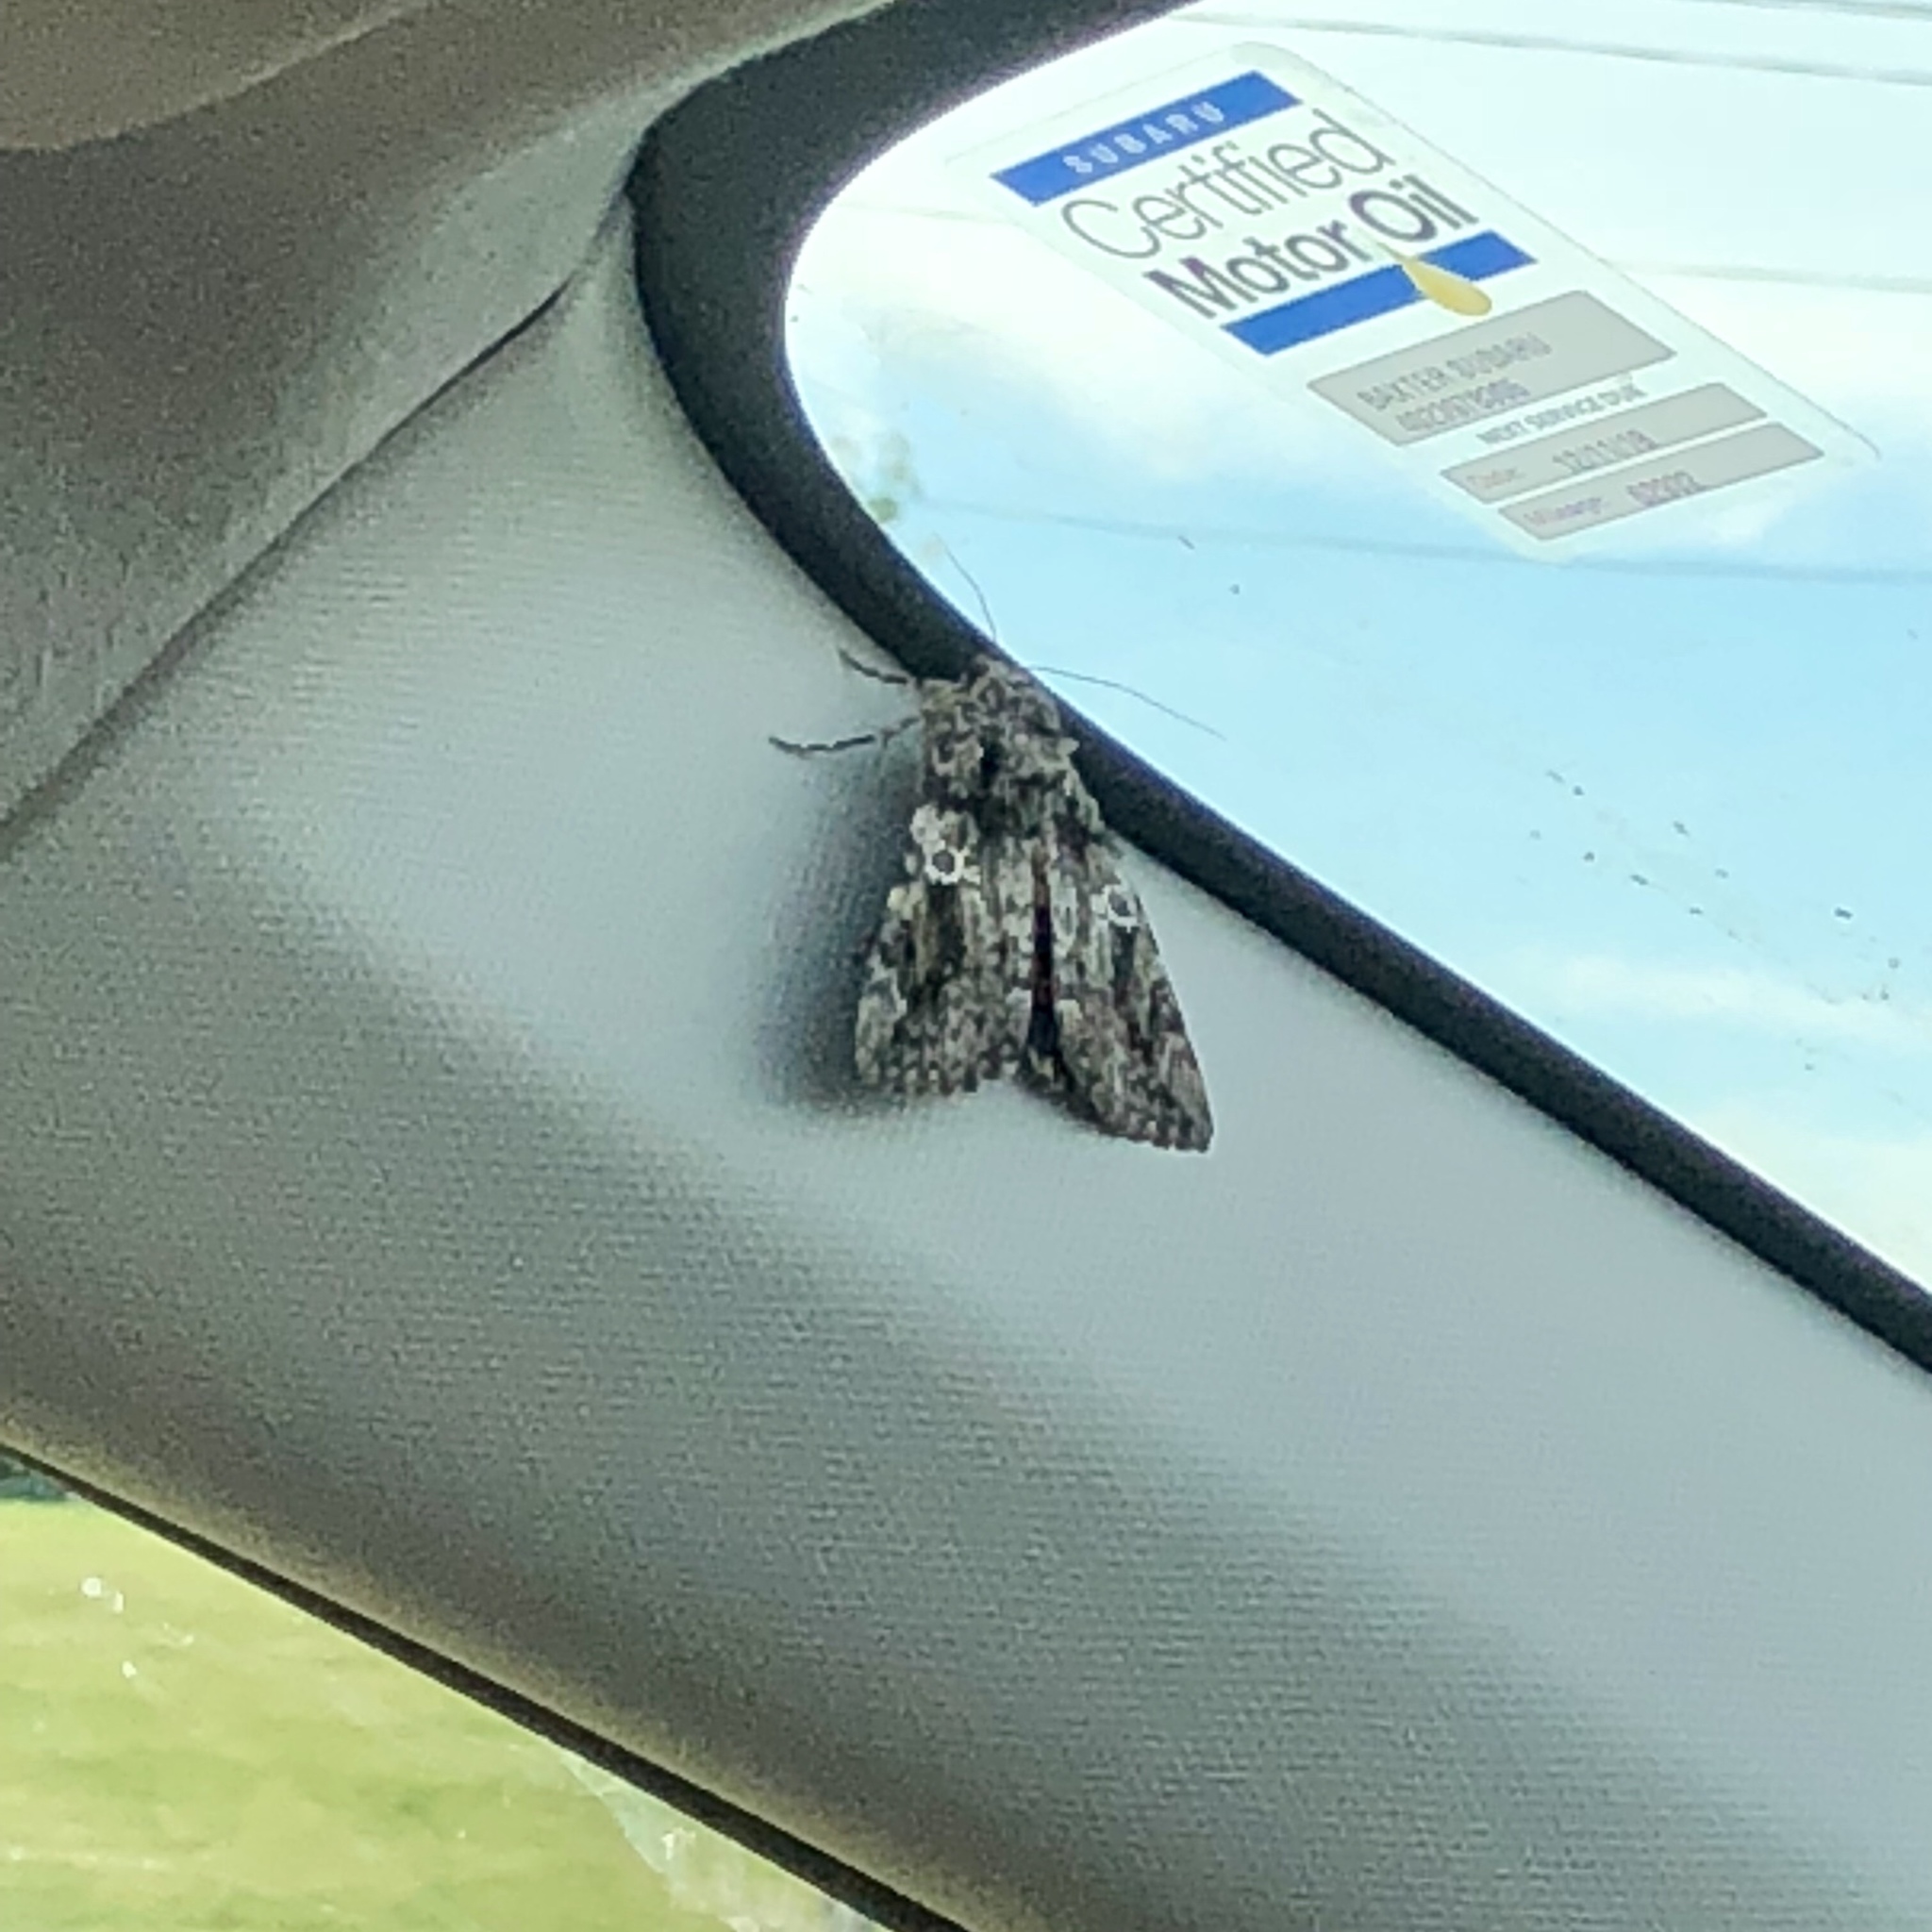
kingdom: Animalia
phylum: Arthropoda
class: Insecta
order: Lepidoptera
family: Erebidae
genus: Catocala
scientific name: Catocala ilia
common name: Ilia underwing
